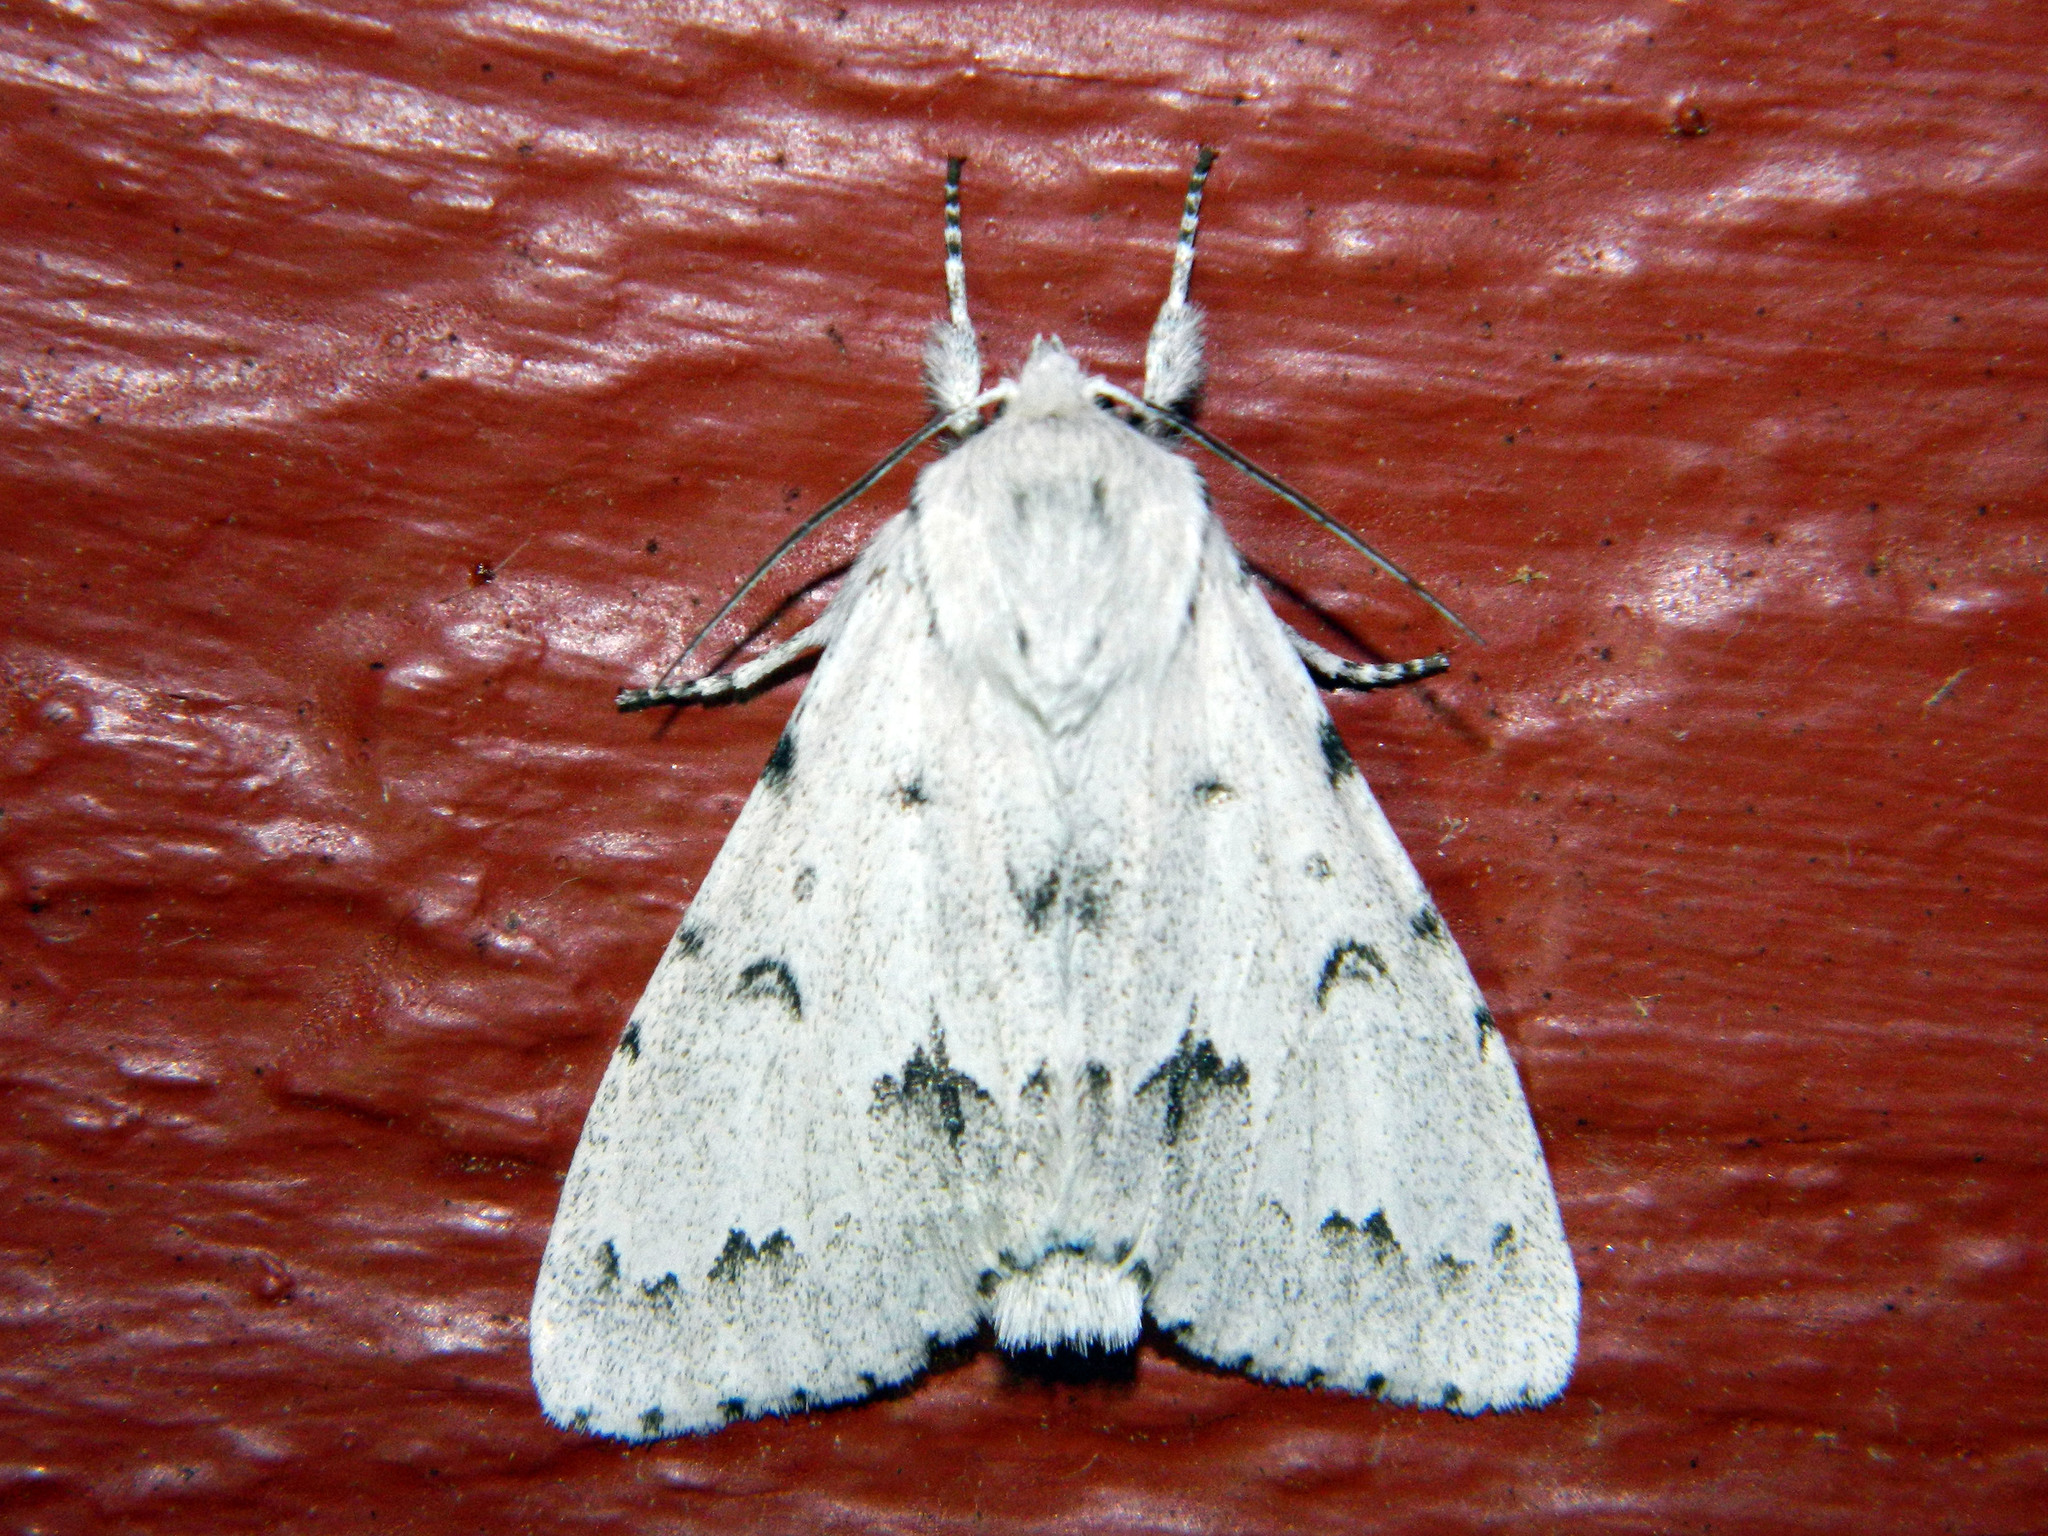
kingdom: Animalia
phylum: Arthropoda
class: Insecta
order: Lepidoptera
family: Noctuidae
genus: Acronicta
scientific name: Acronicta vulpina
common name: Miller dagger
